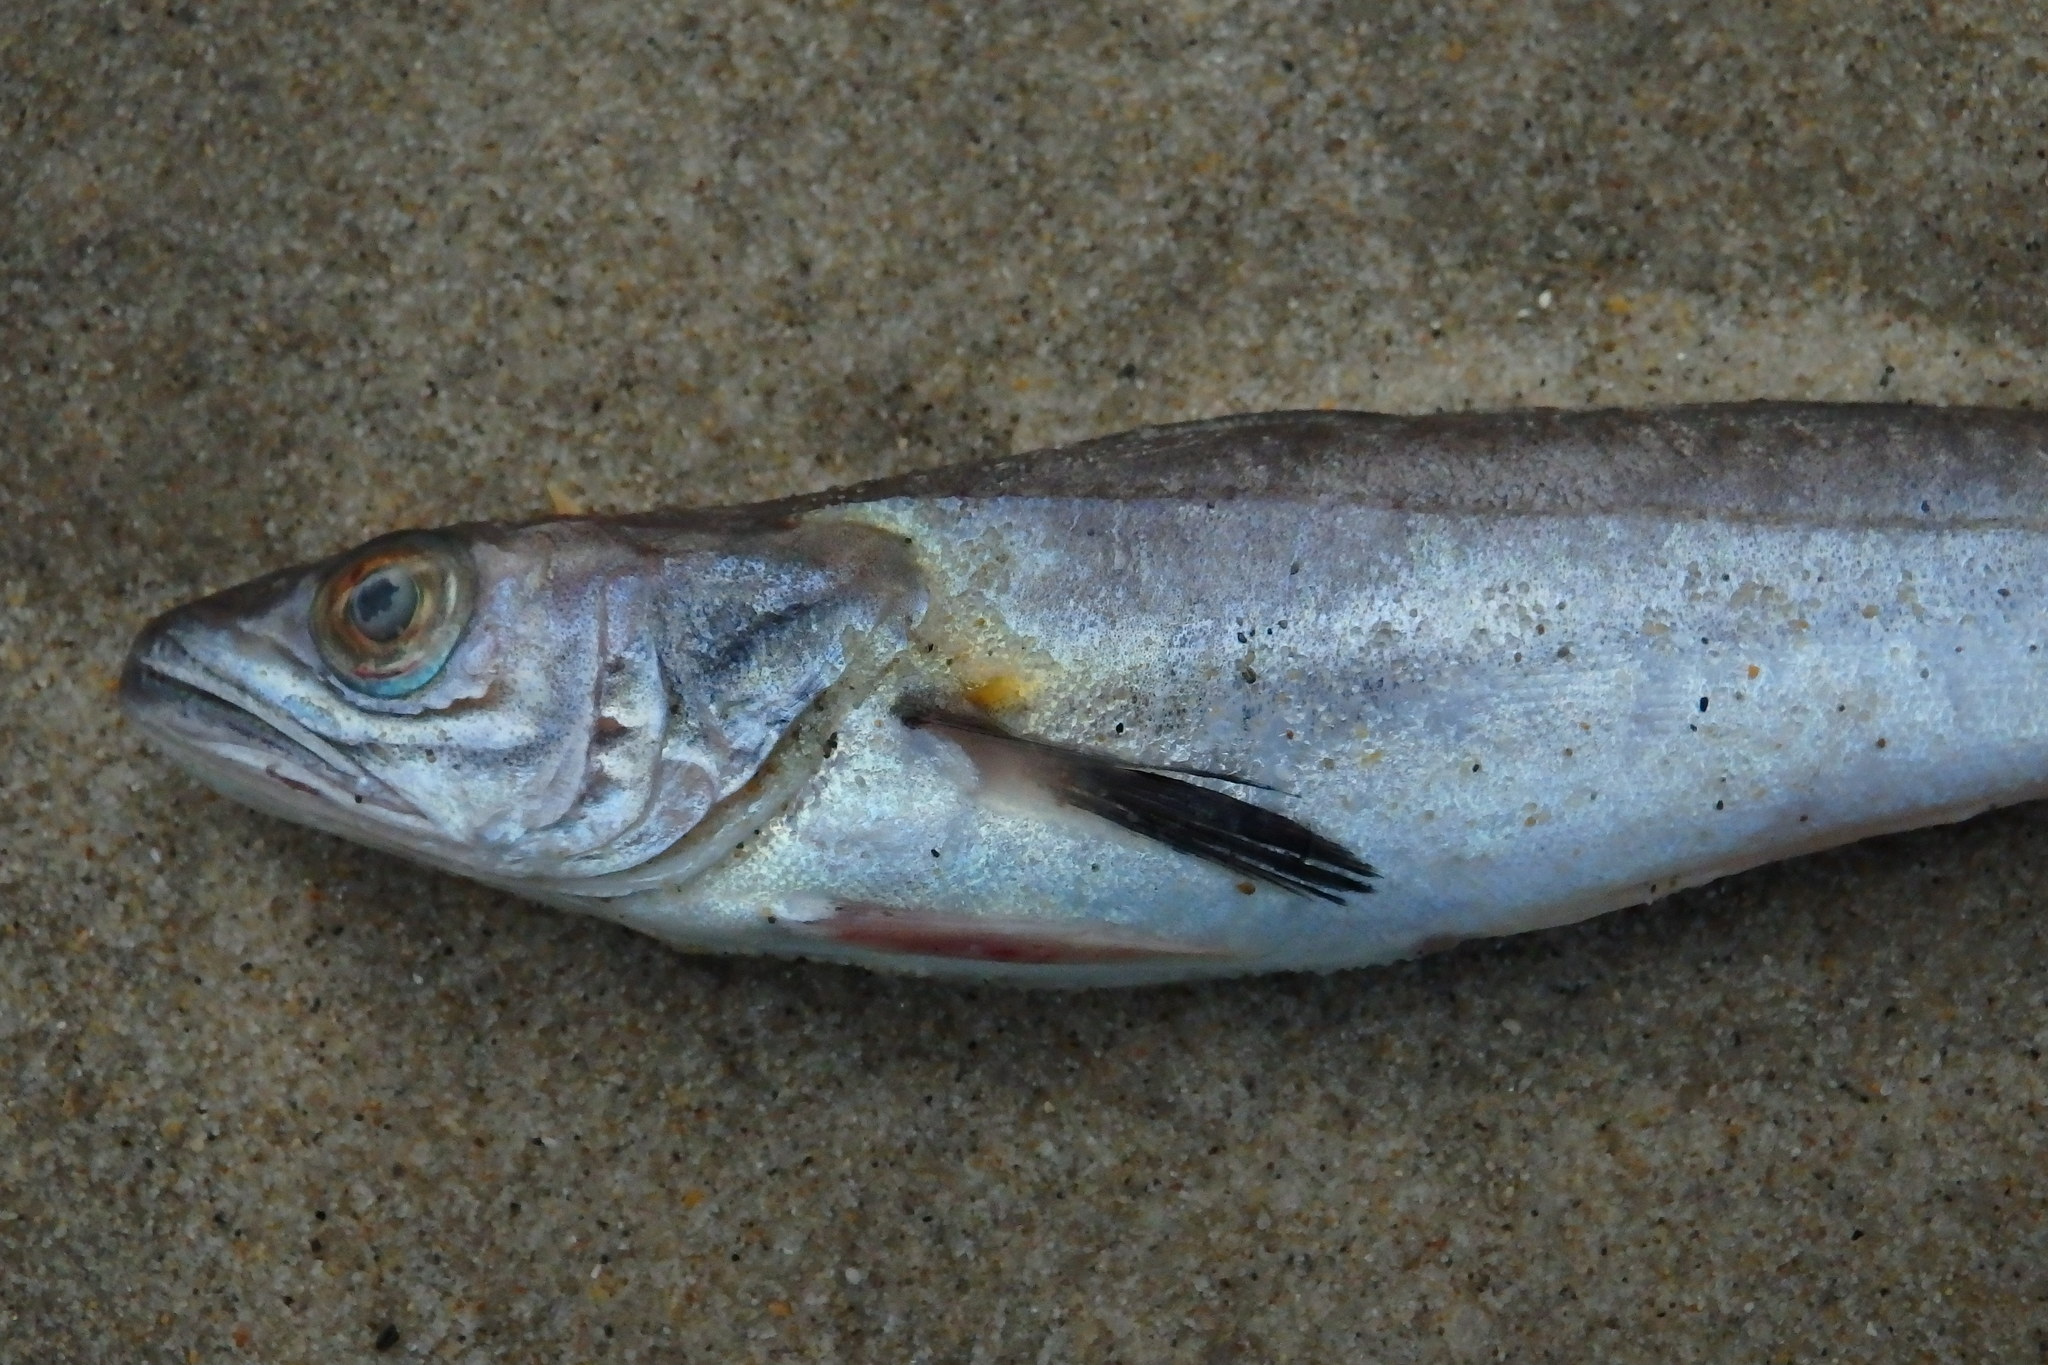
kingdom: Animalia
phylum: Chordata
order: Gadiformes
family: Merlucciidae
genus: Merluccius
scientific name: Merluccius merluccius
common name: European hake
